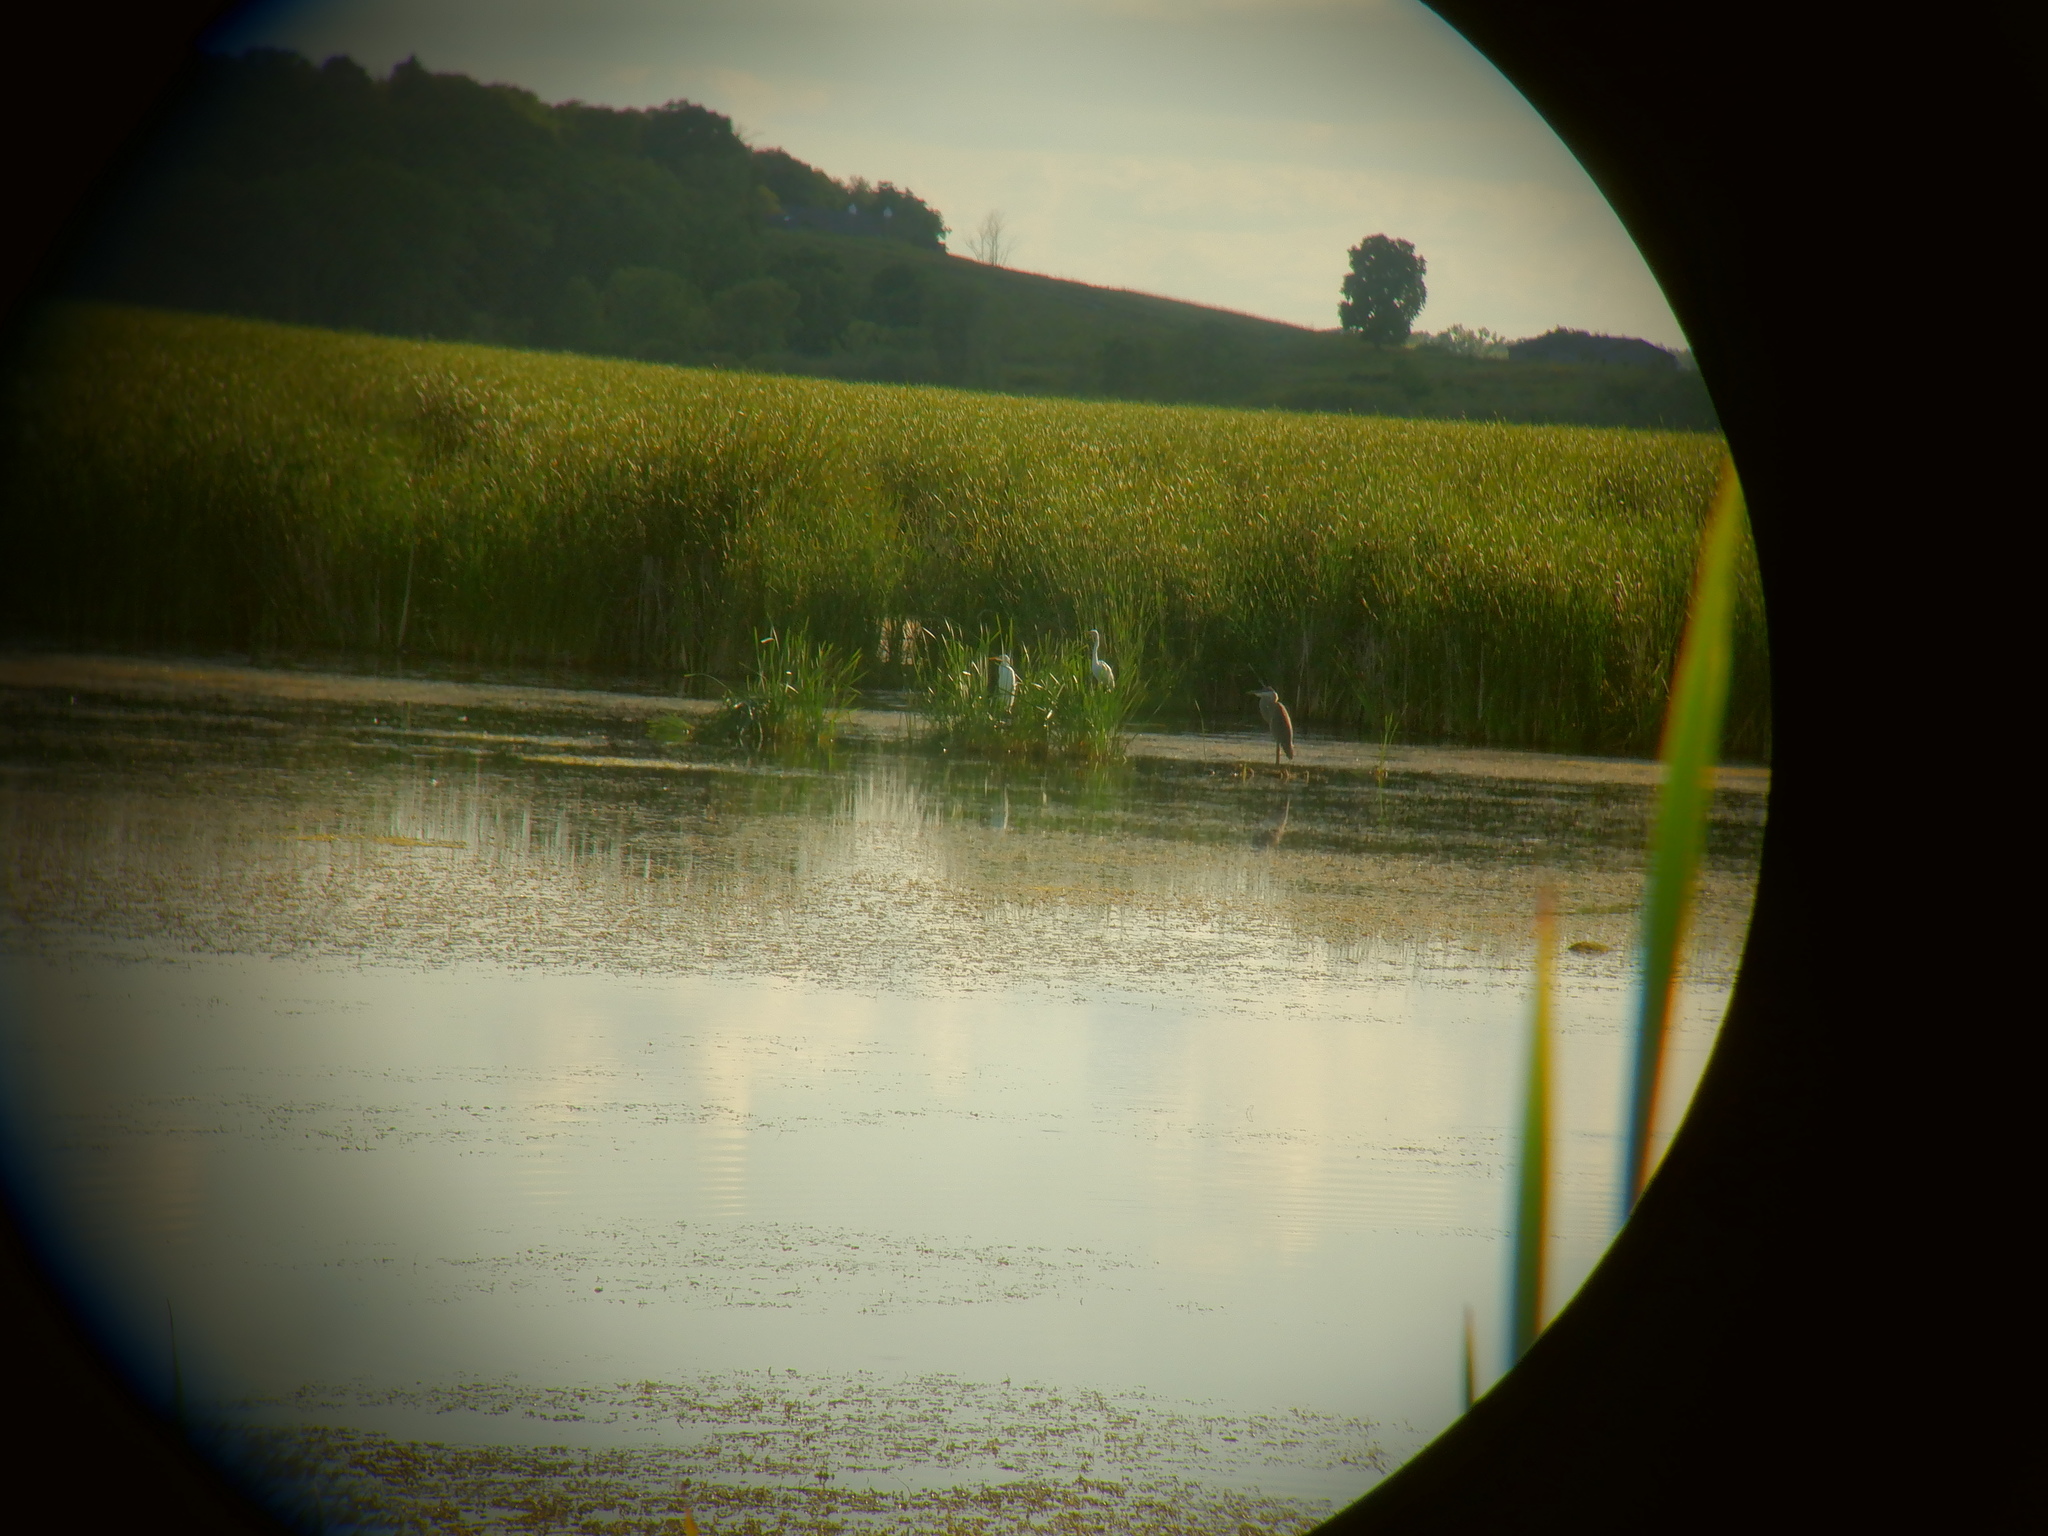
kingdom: Animalia
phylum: Chordata
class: Aves
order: Pelecaniformes
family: Ardeidae
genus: Ardea
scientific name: Ardea herodias
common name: Great blue heron
